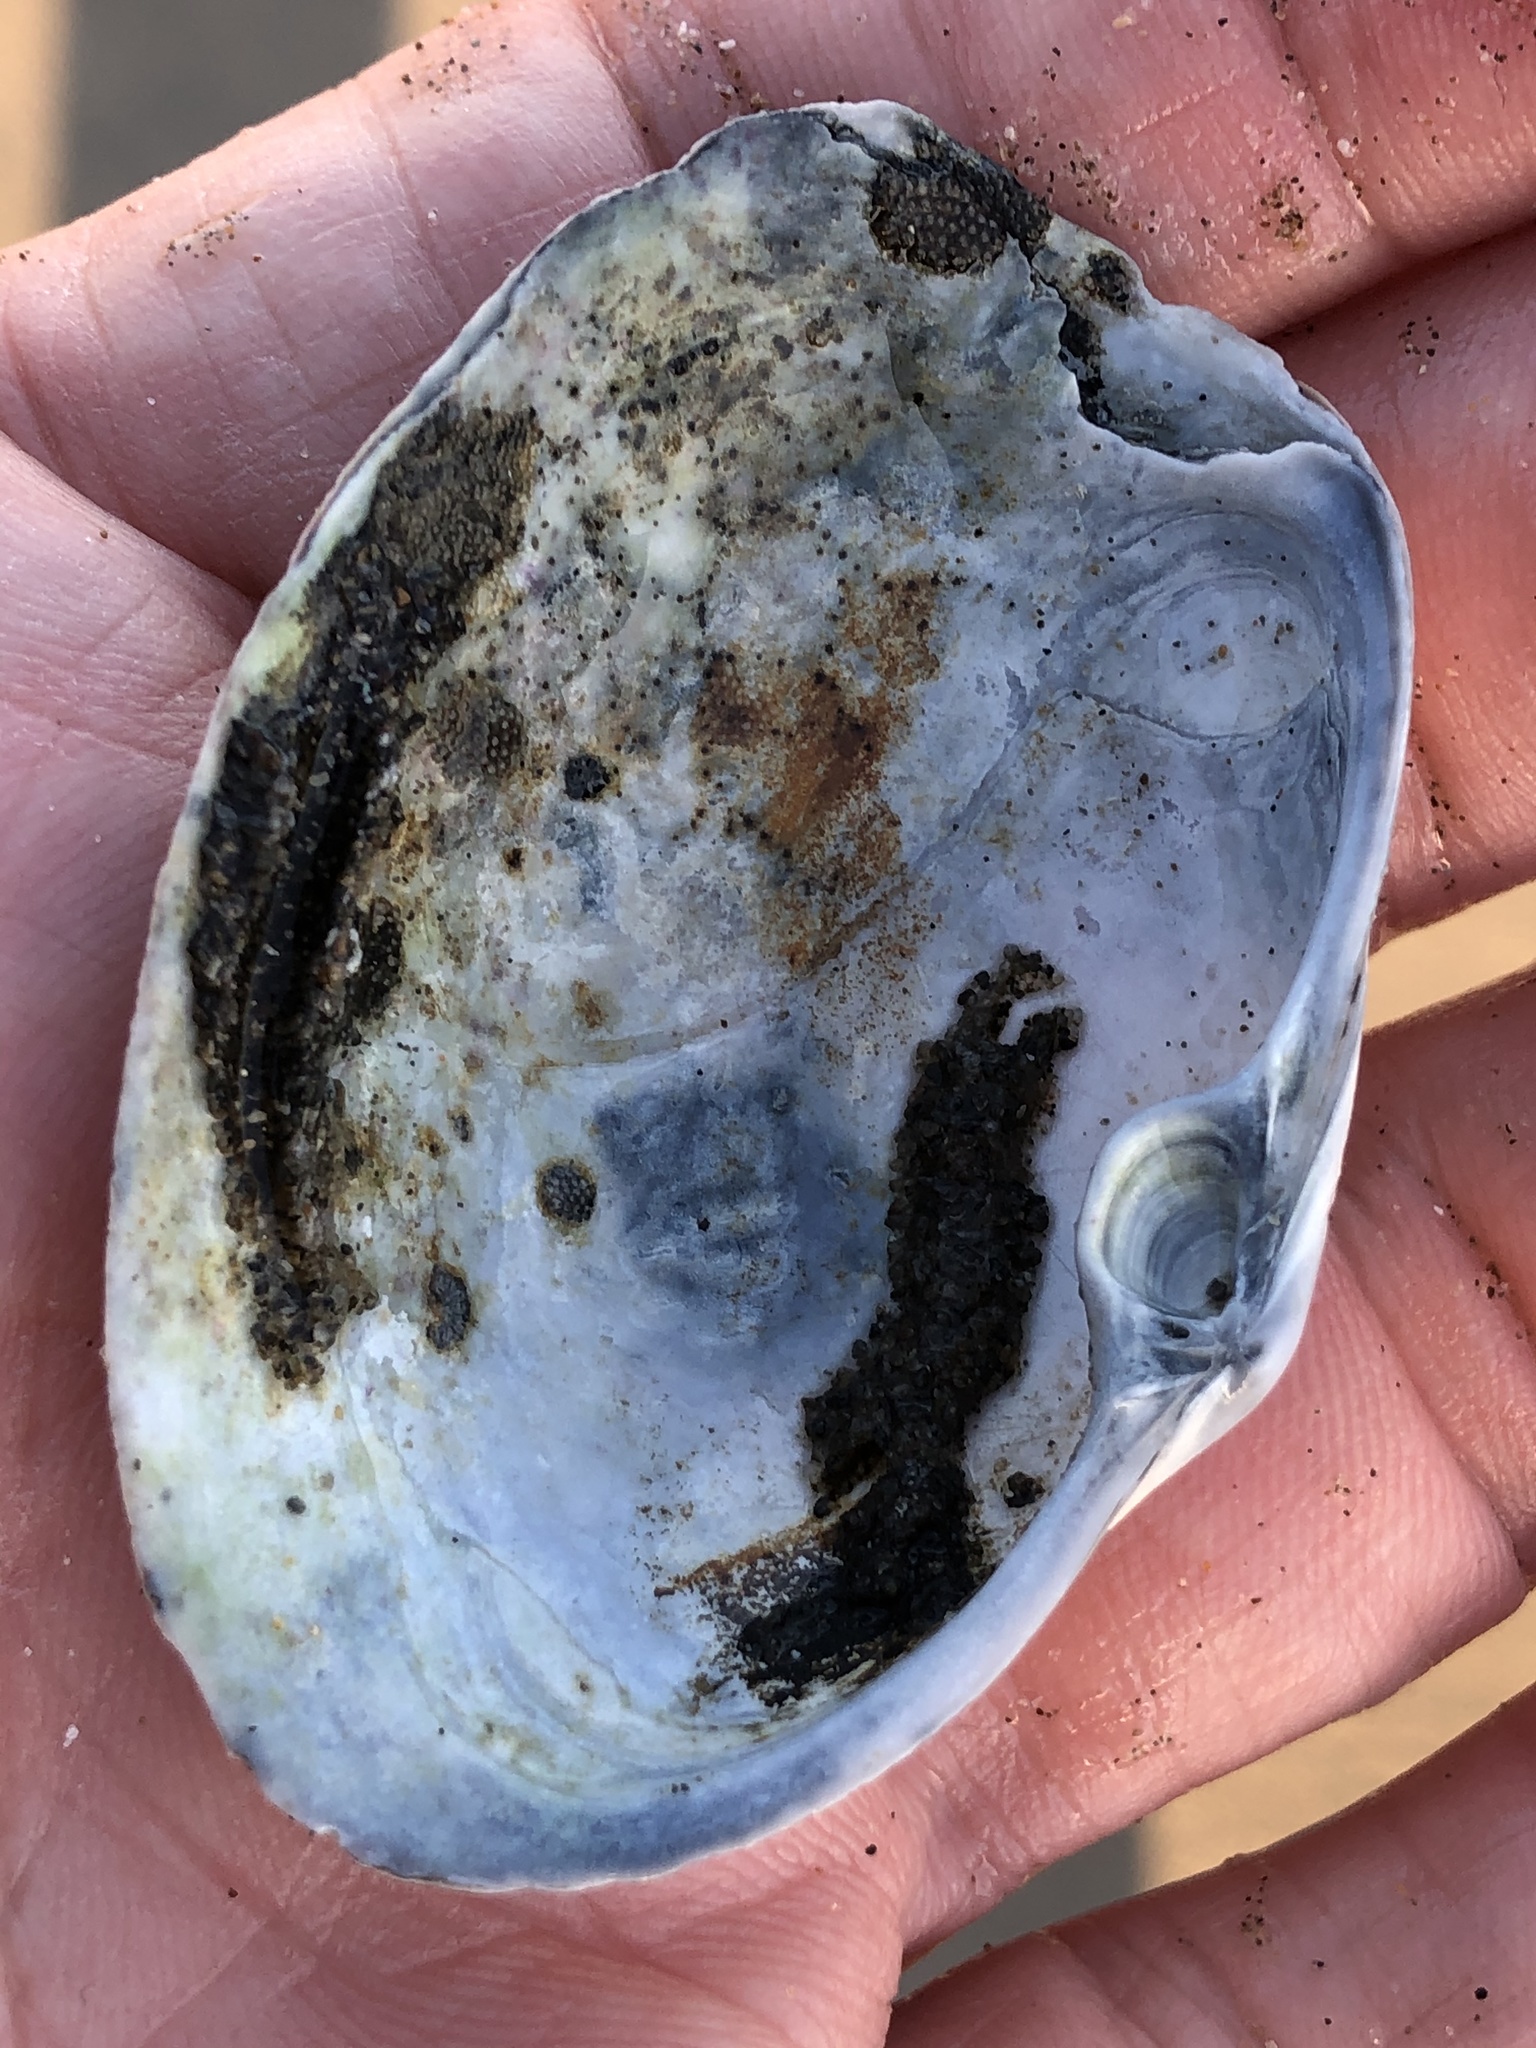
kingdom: Animalia
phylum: Mollusca
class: Bivalvia
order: Venerida
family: Mactridae
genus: Tresus
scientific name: Tresus nuttallii
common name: Pacific gaper clam
